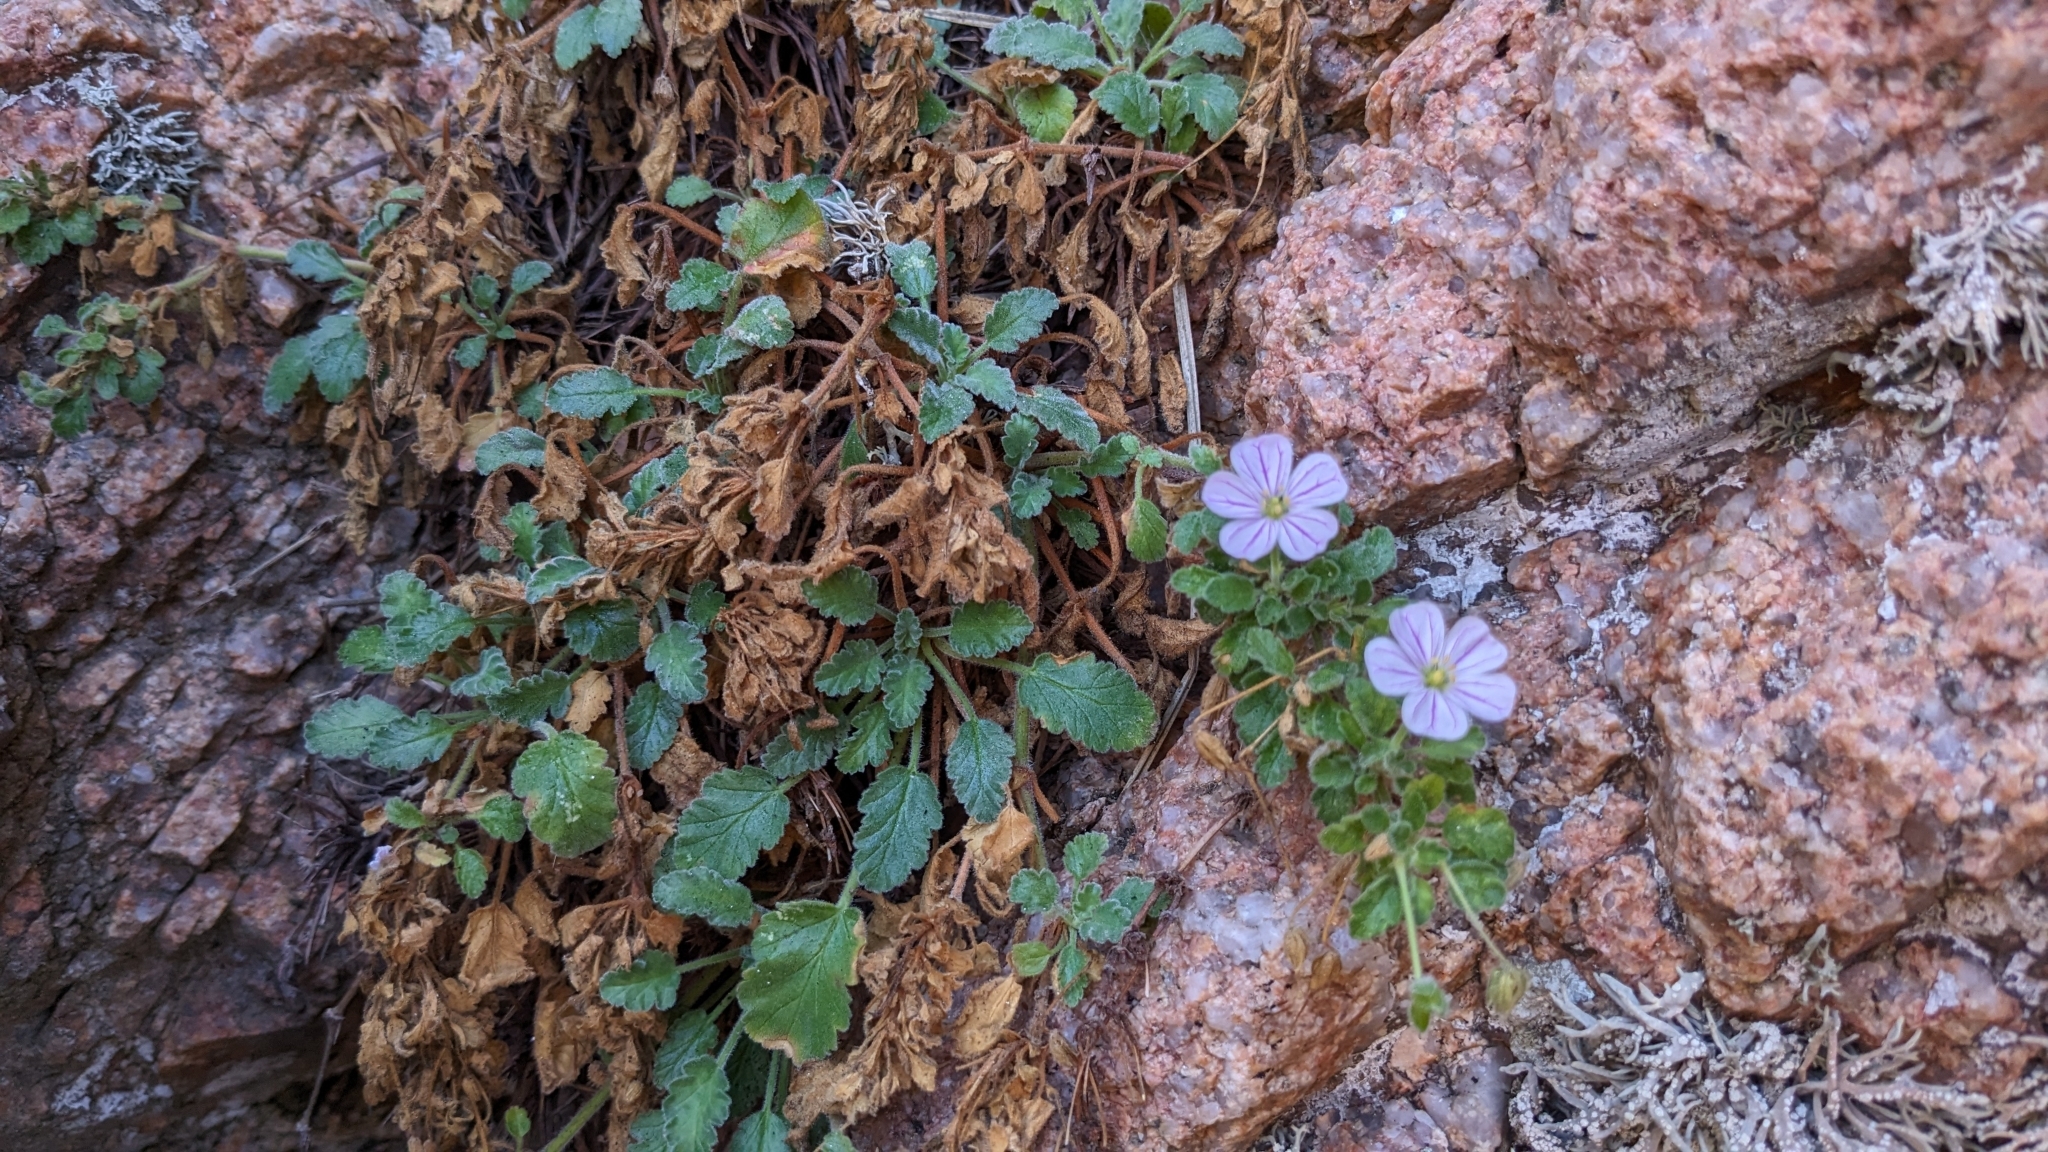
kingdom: Plantae
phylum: Tracheophyta
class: Magnoliopsida
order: Geraniales
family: Geraniaceae
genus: Erodium
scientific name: Erodium corsicum
